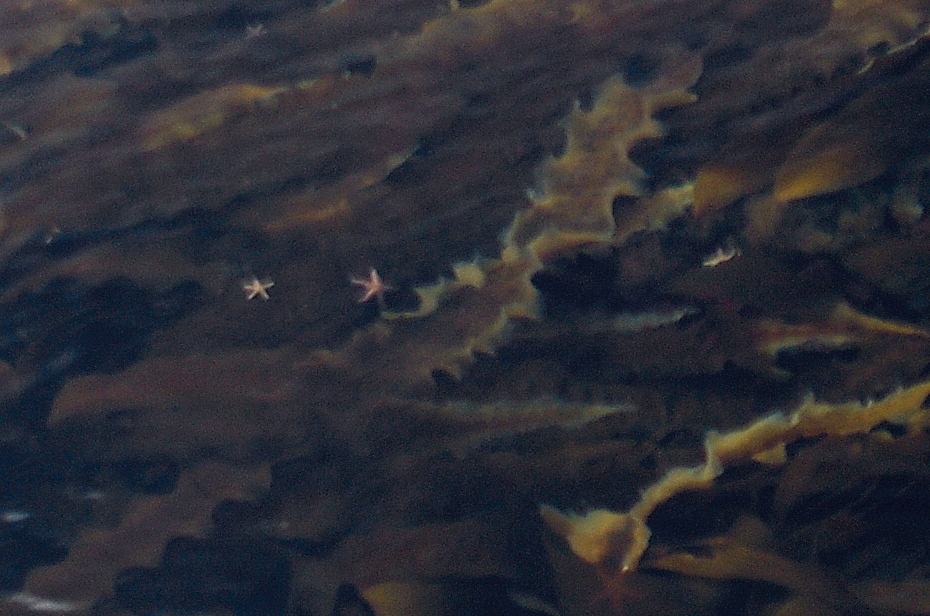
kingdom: Chromista
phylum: Ochrophyta
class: Phaeophyceae
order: Laminariales
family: Laminariaceae
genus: Saccharina
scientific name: Saccharina latissima
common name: Poor man's weather glass
